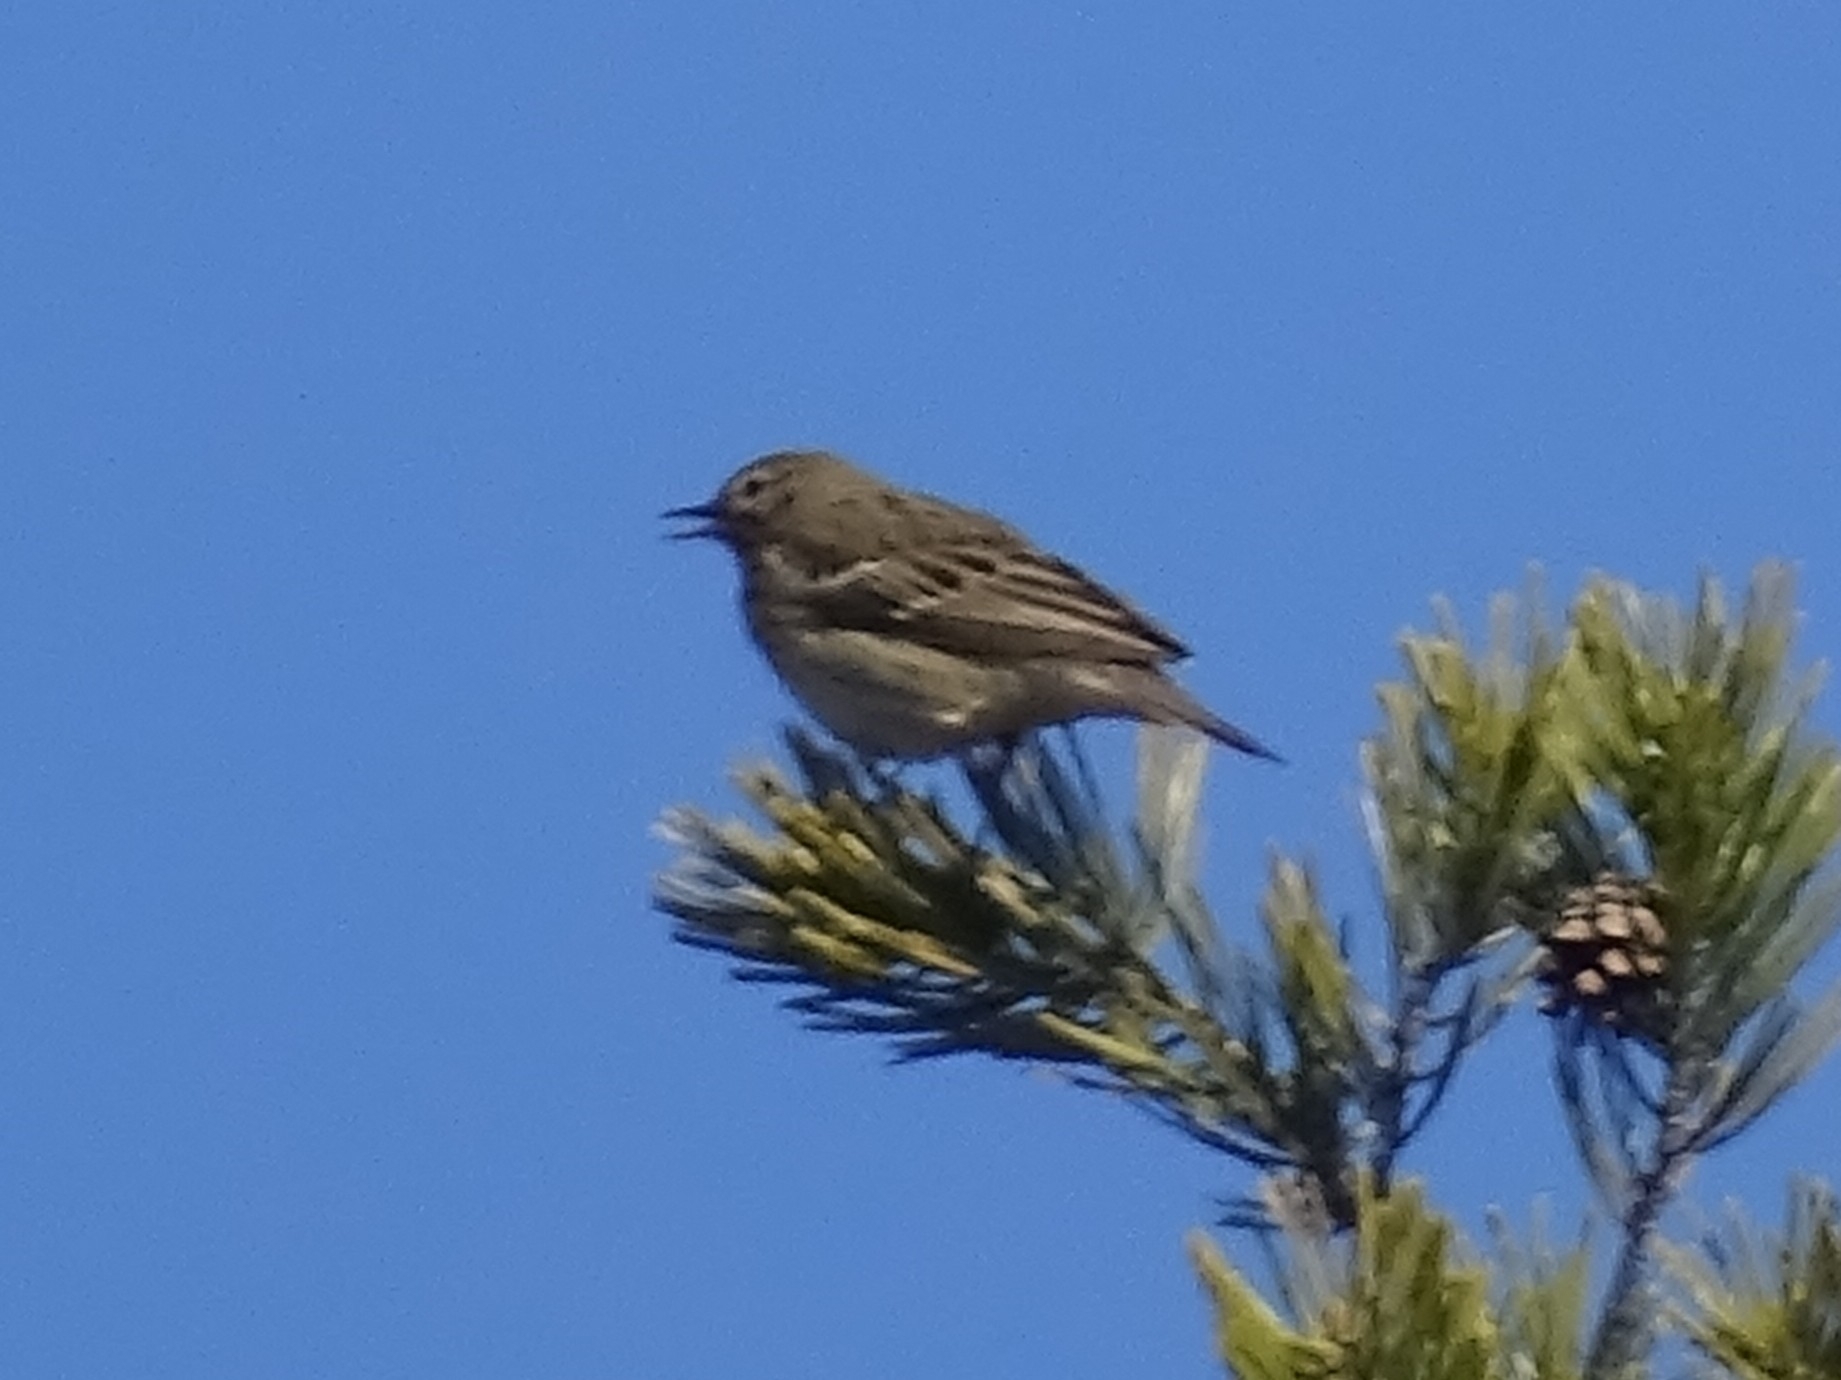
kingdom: Animalia
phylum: Chordata
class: Aves
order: Passeriformes
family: Motacillidae
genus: Anthus
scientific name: Anthus trivialis
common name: Tree pipit
